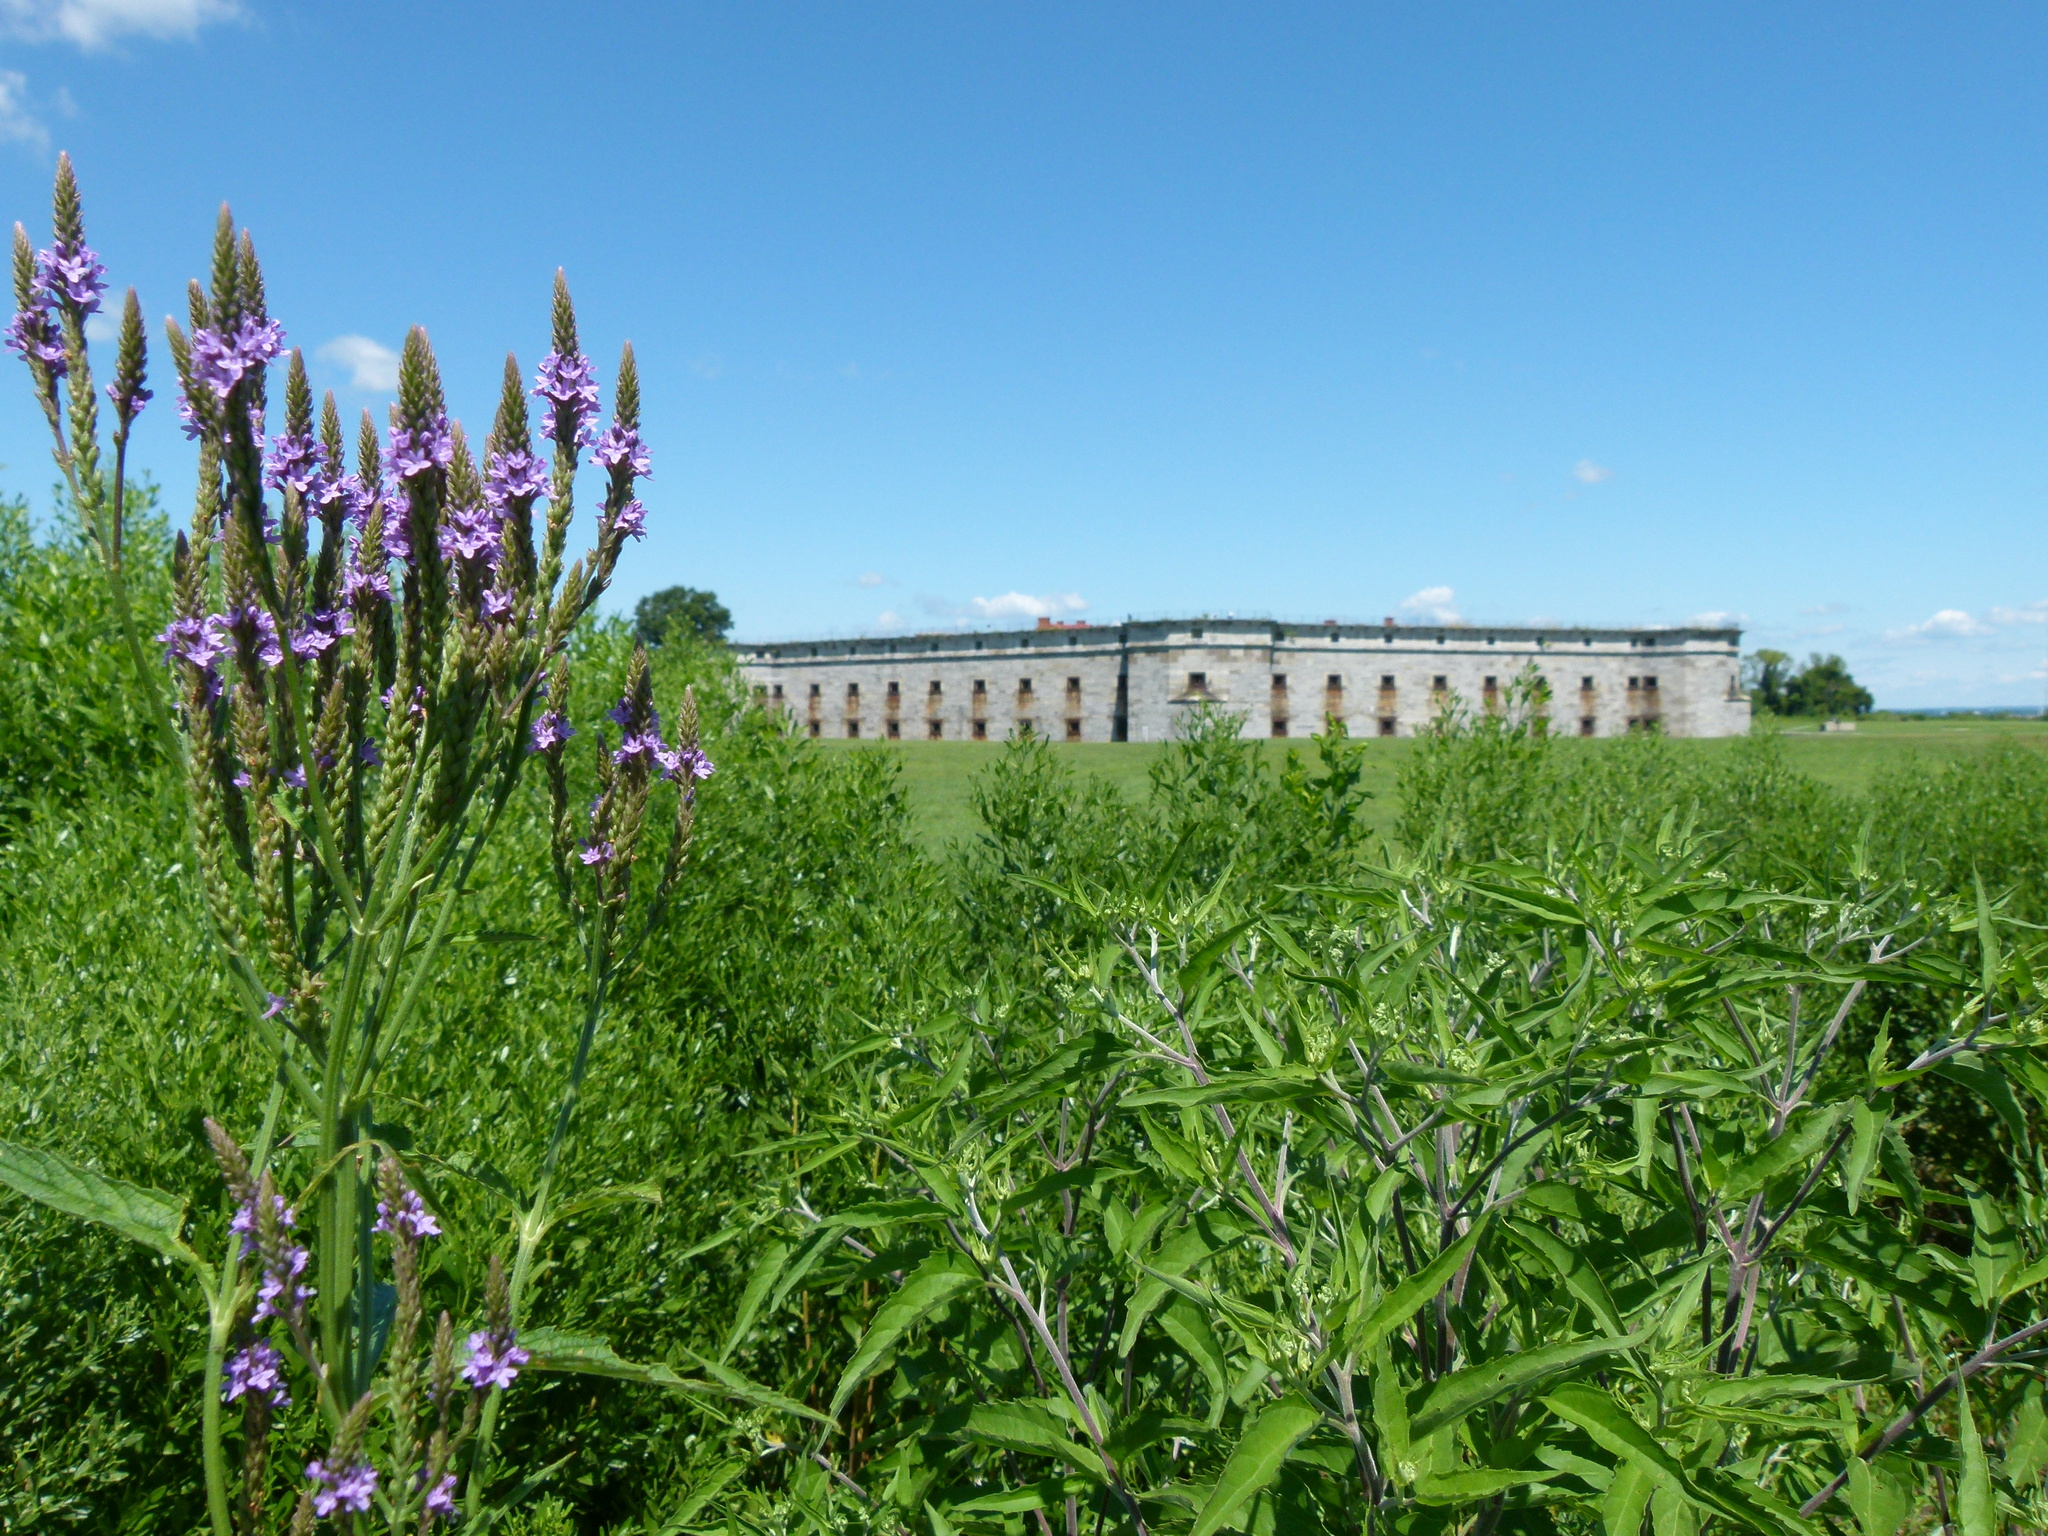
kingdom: Plantae
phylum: Tracheophyta
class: Magnoliopsida
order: Lamiales
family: Verbenaceae
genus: Verbena
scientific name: Verbena hastata
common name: American blue vervain
